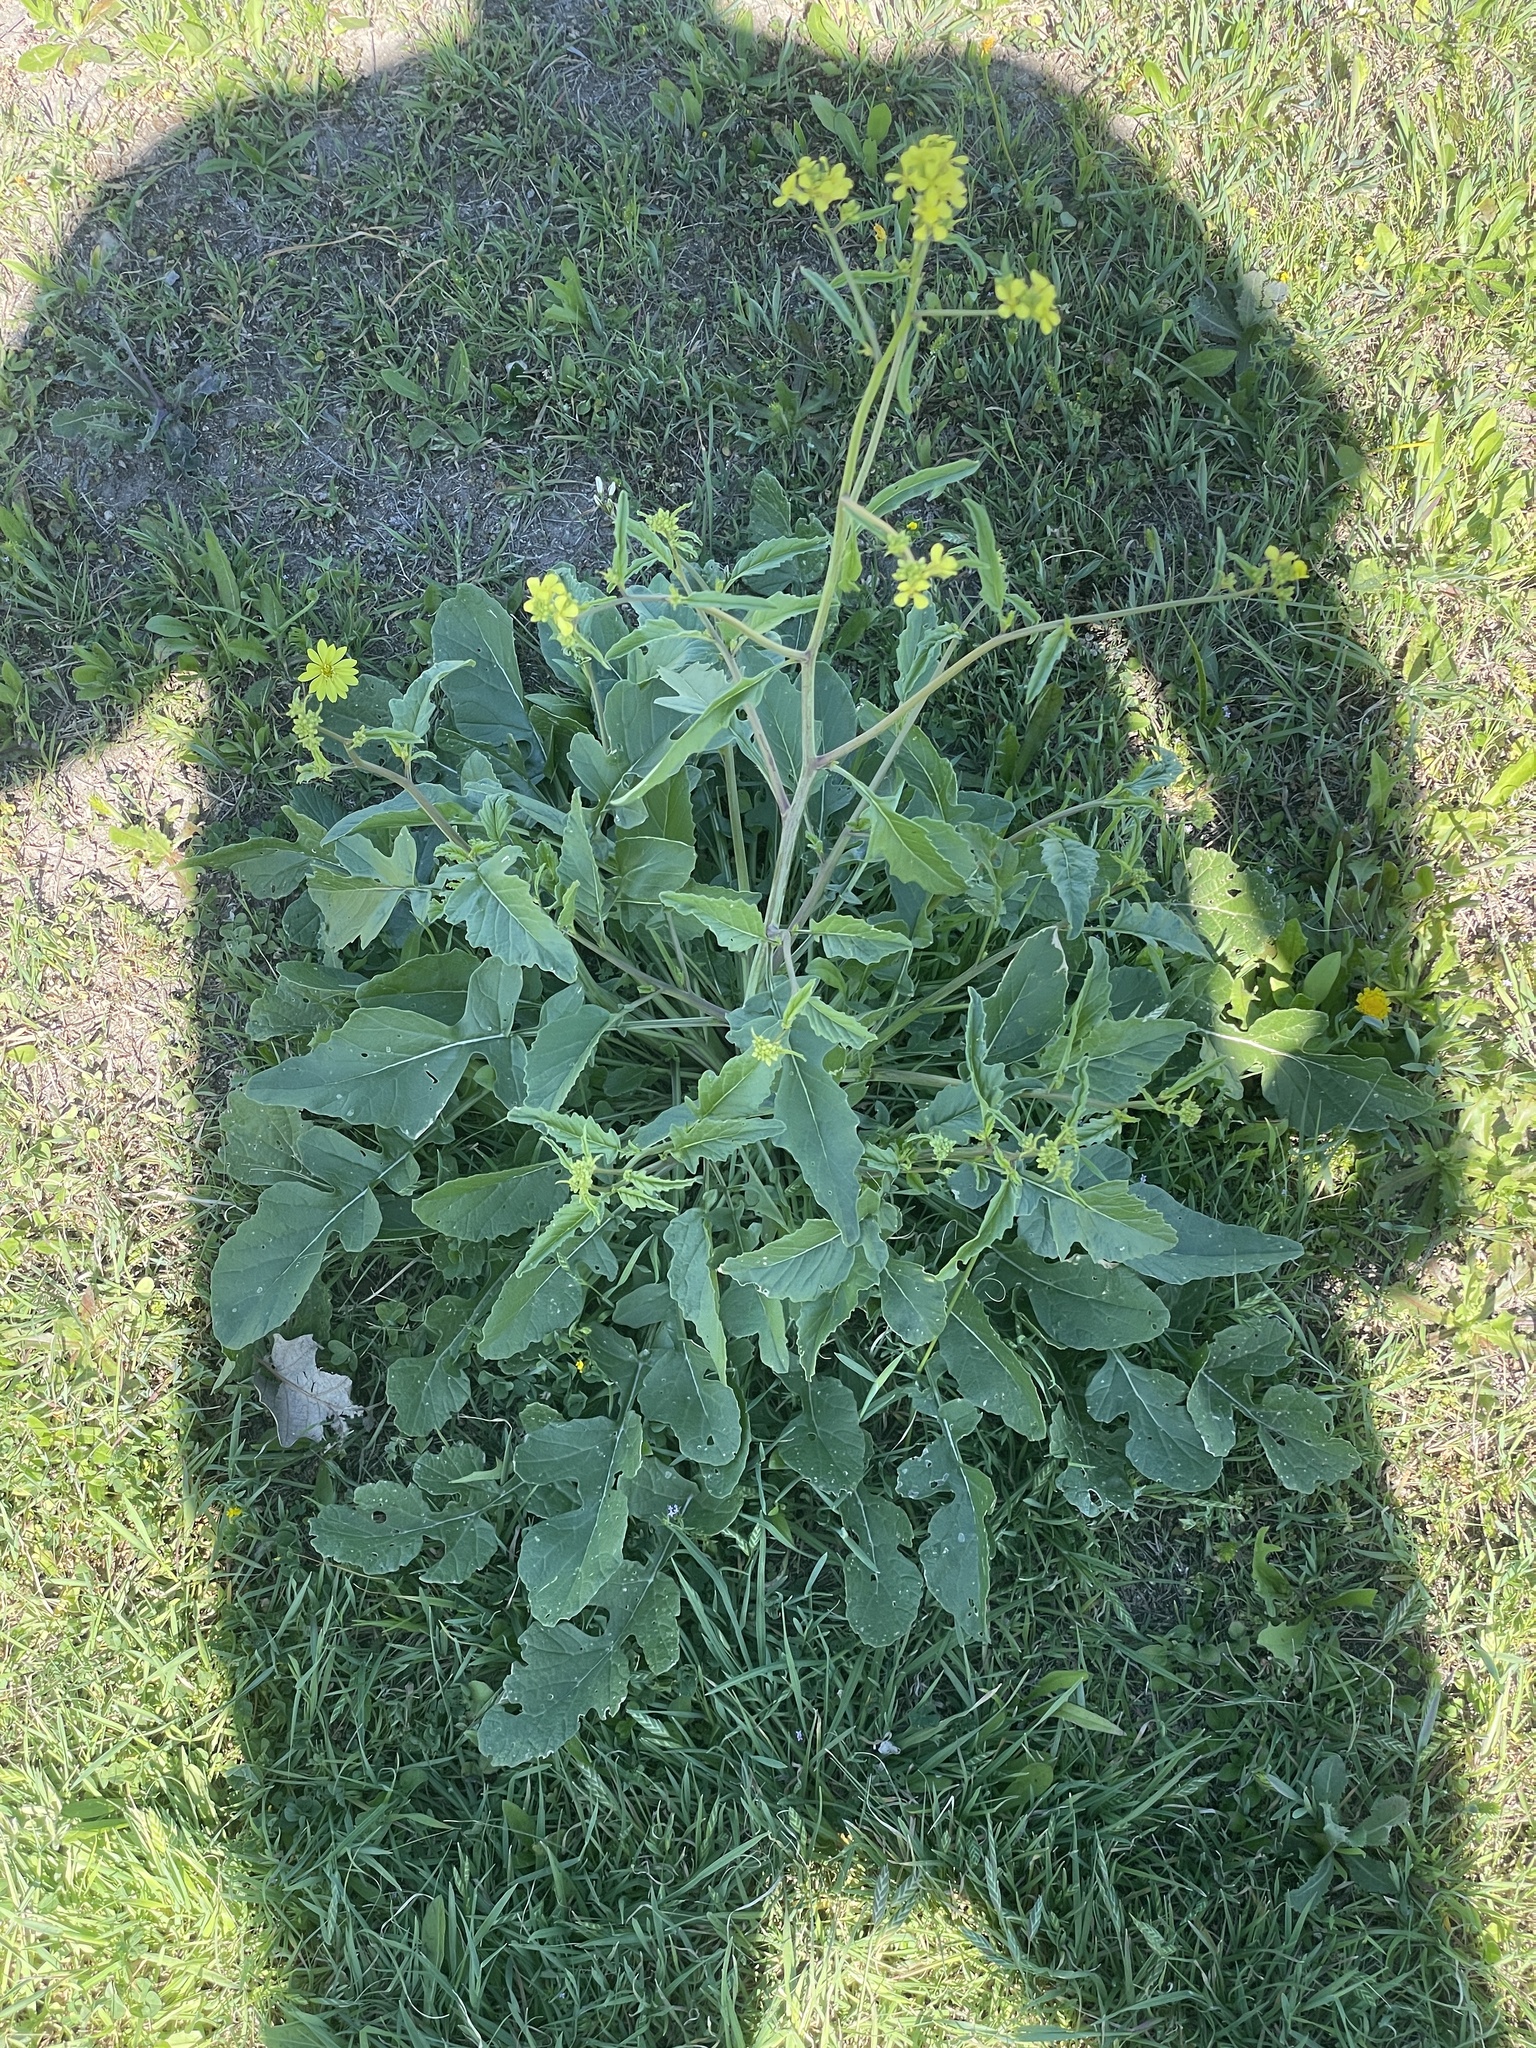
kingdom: Plantae
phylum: Tracheophyta
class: Magnoliopsida
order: Brassicales
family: Brassicaceae
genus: Rapistrum
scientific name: Rapistrum rugosum
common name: Annual bastardcabbage
